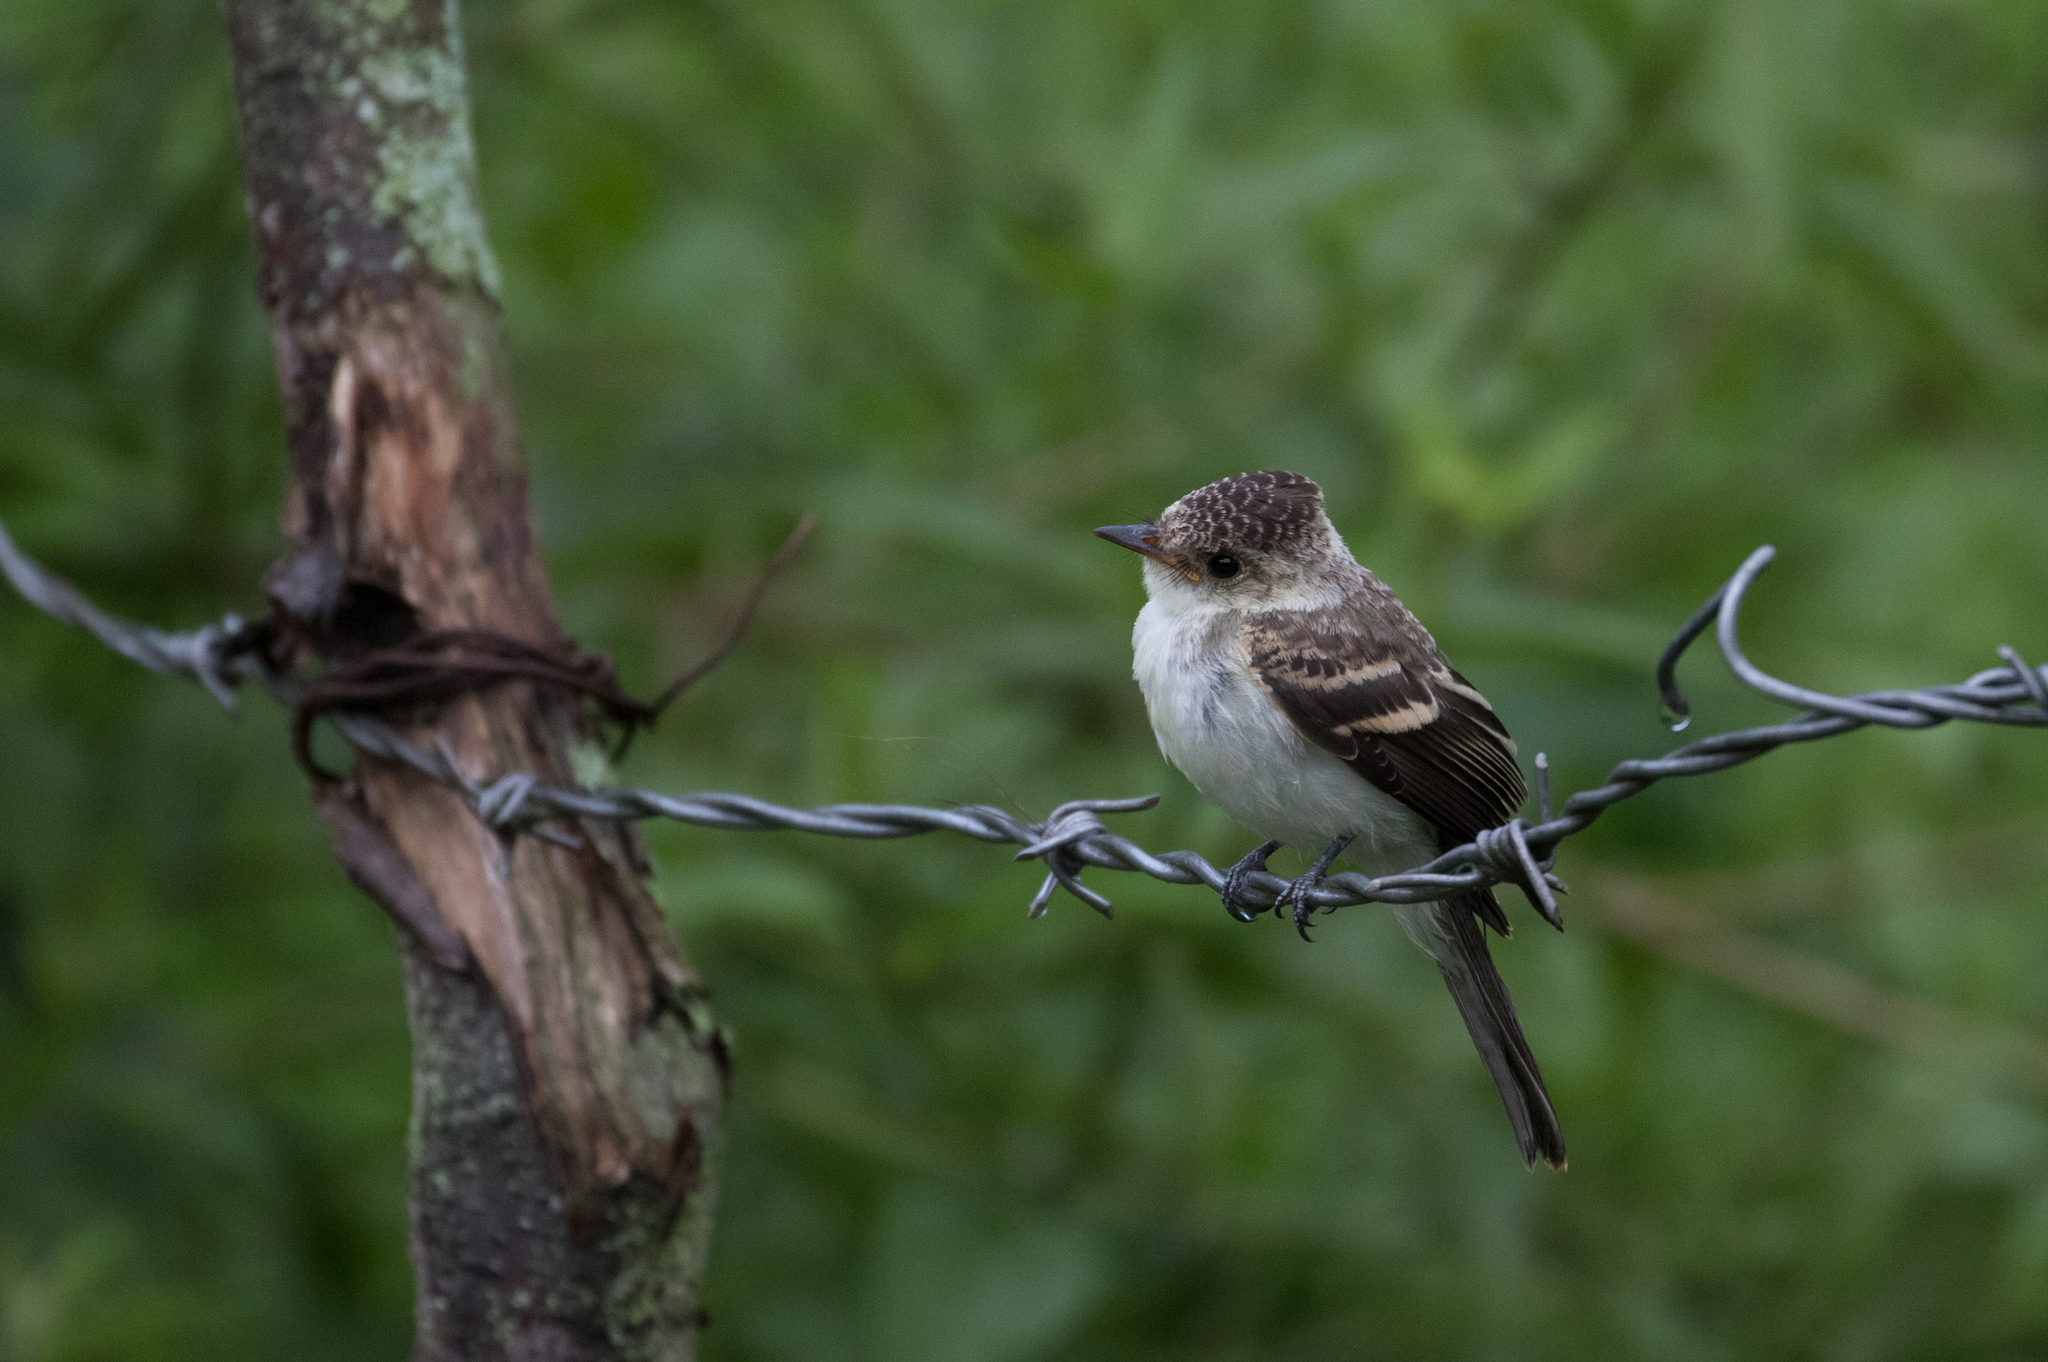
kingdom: Animalia
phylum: Chordata
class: Aves
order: Passeriformes
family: Tyrannidae
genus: Contopus
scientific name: Contopus cinereus
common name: Tropical pewee
